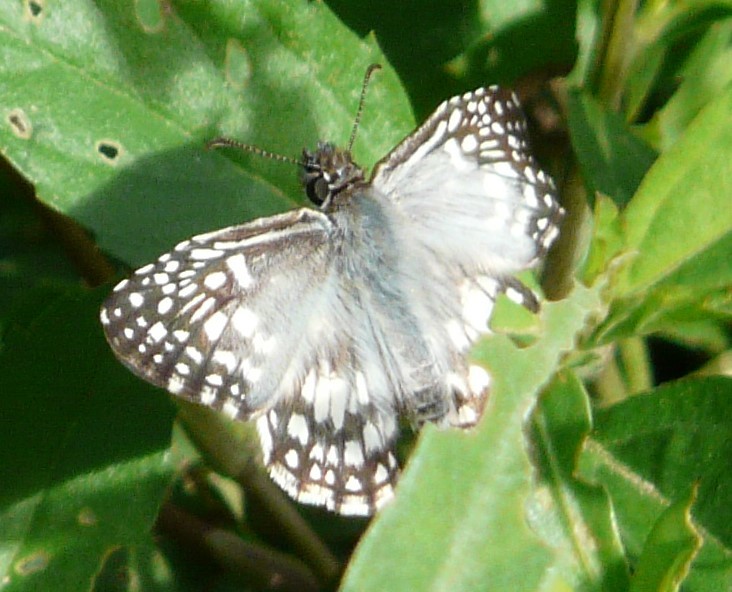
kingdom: Animalia
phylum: Arthropoda
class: Insecta
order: Lepidoptera
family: Hesperiidae
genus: Pyrgus
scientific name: Pyrgus oileus
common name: Tropical checkered-skipper
